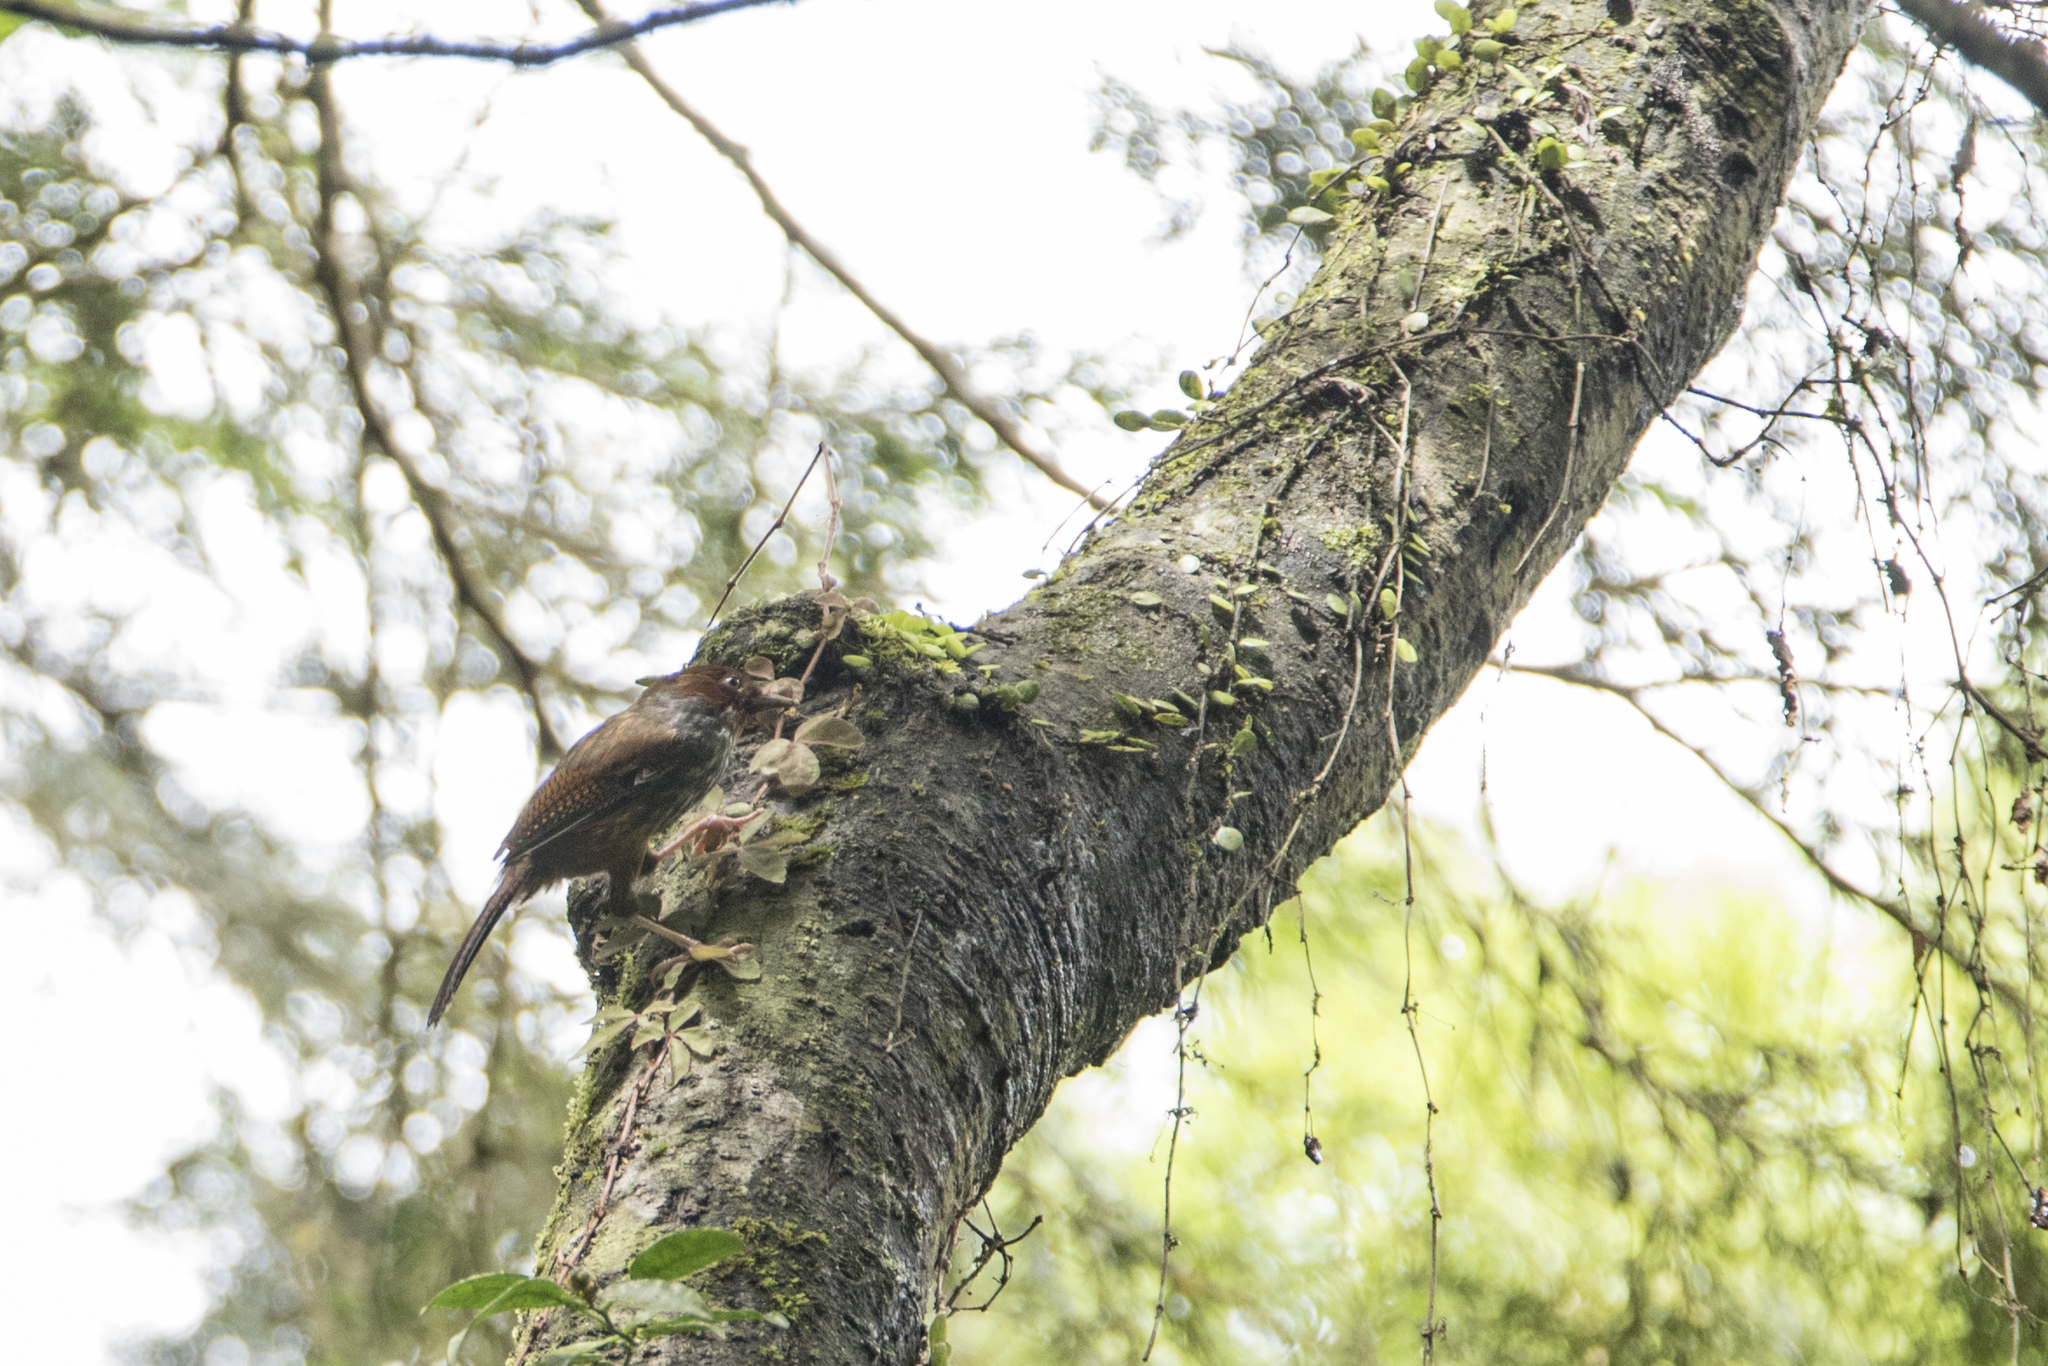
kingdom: Animalia
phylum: Chordata
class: Aves
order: Passeriformes
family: Leiothrichidae
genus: Actinodura
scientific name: Actinodura morrisoniana
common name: Taiwan barwing
